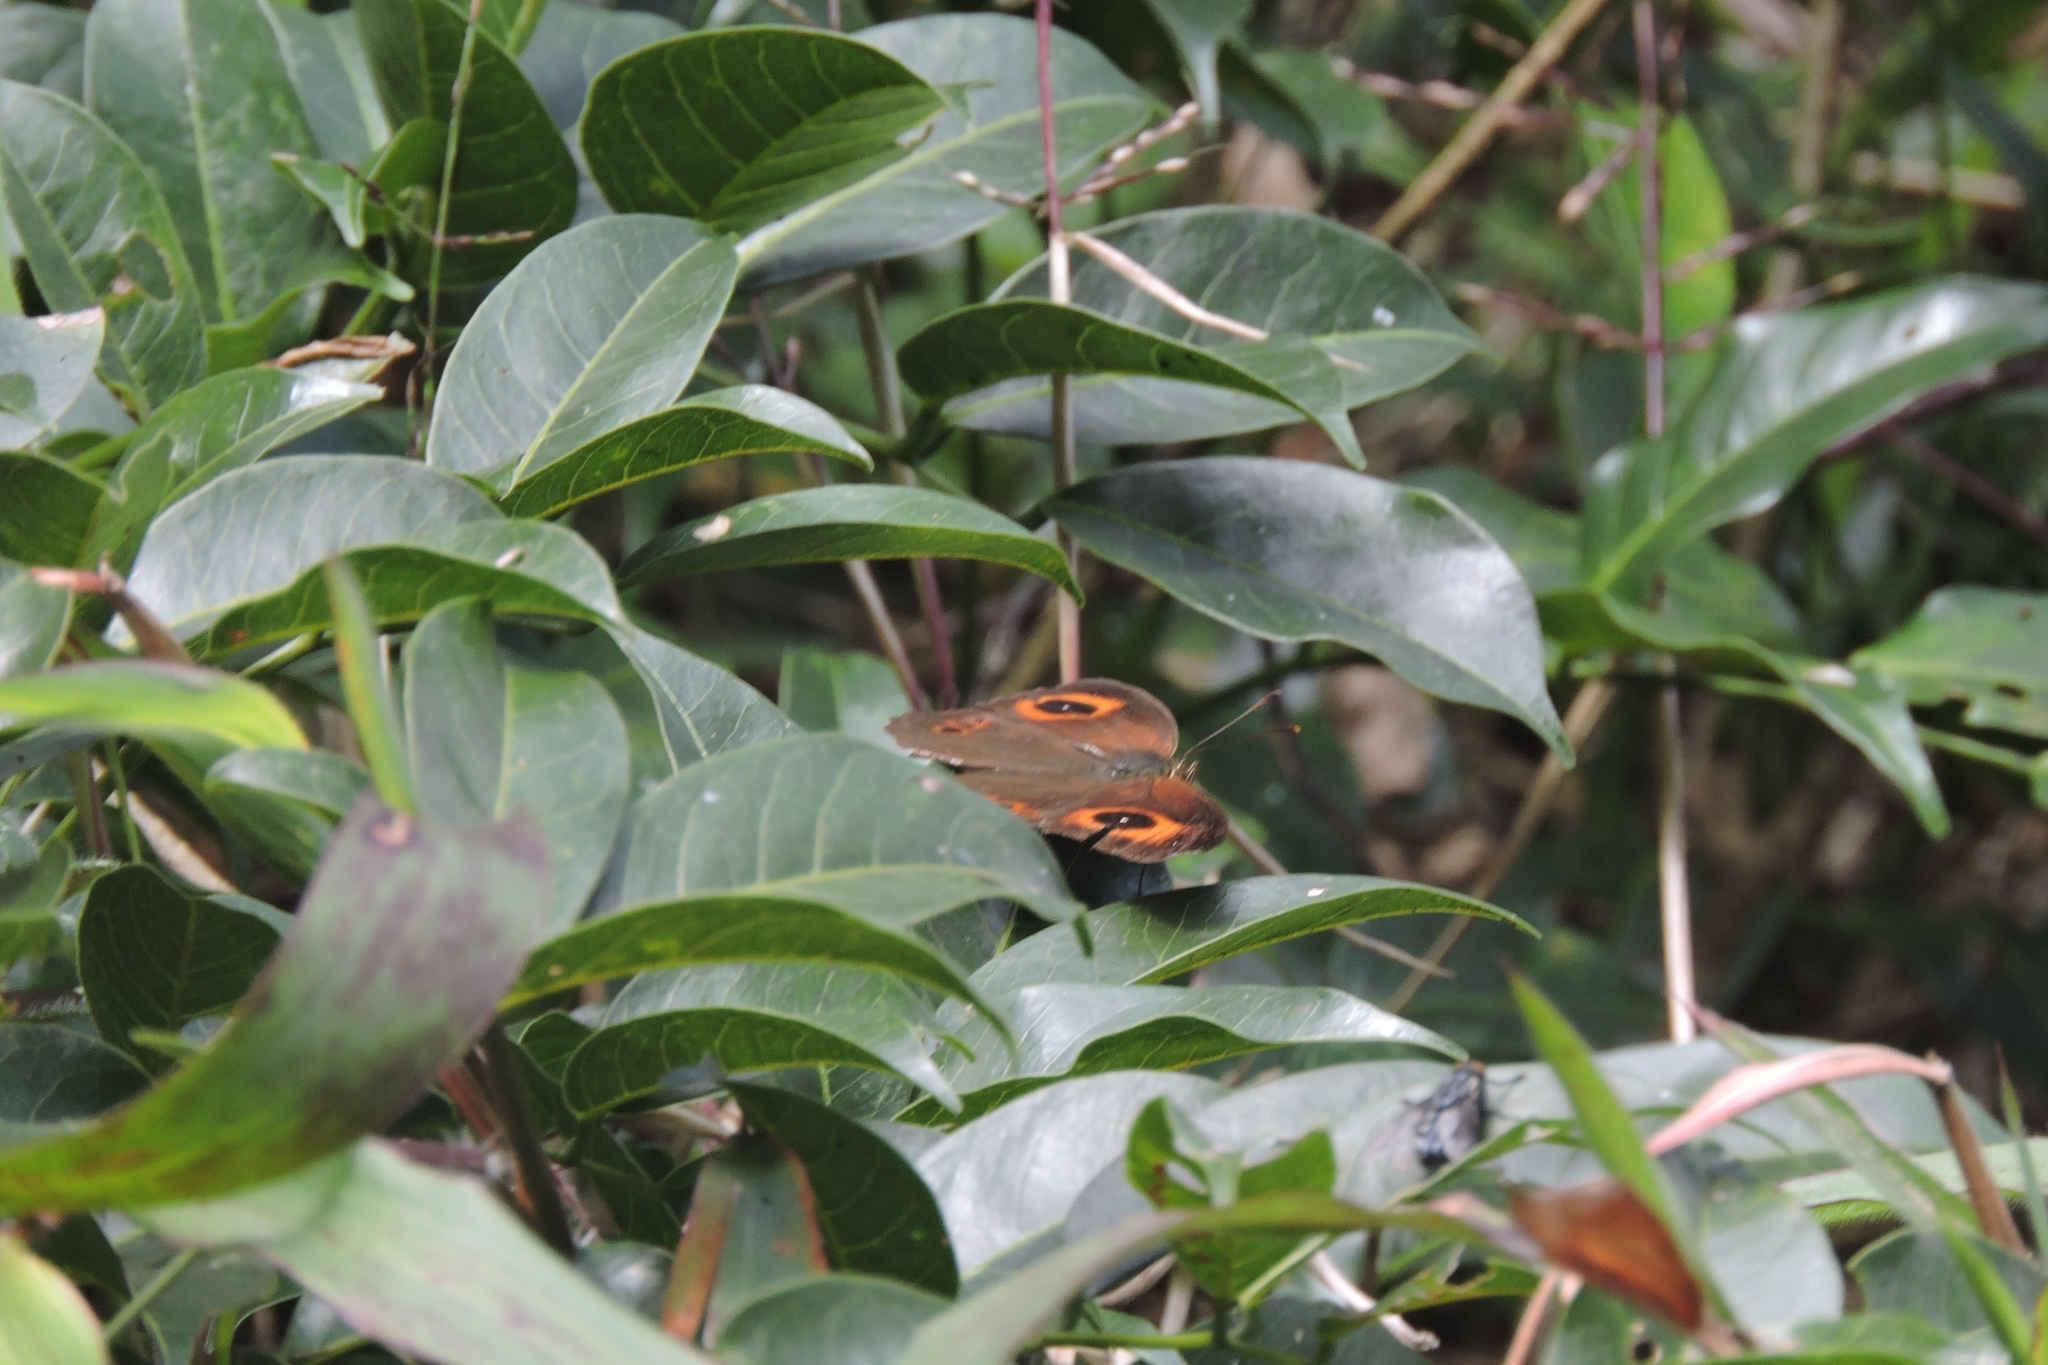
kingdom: Animalia
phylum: Arthropoda
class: Insecta
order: Lepidoptera
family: Nymphalidae
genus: Mycalesis
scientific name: Mycalesis Telinga oculus
